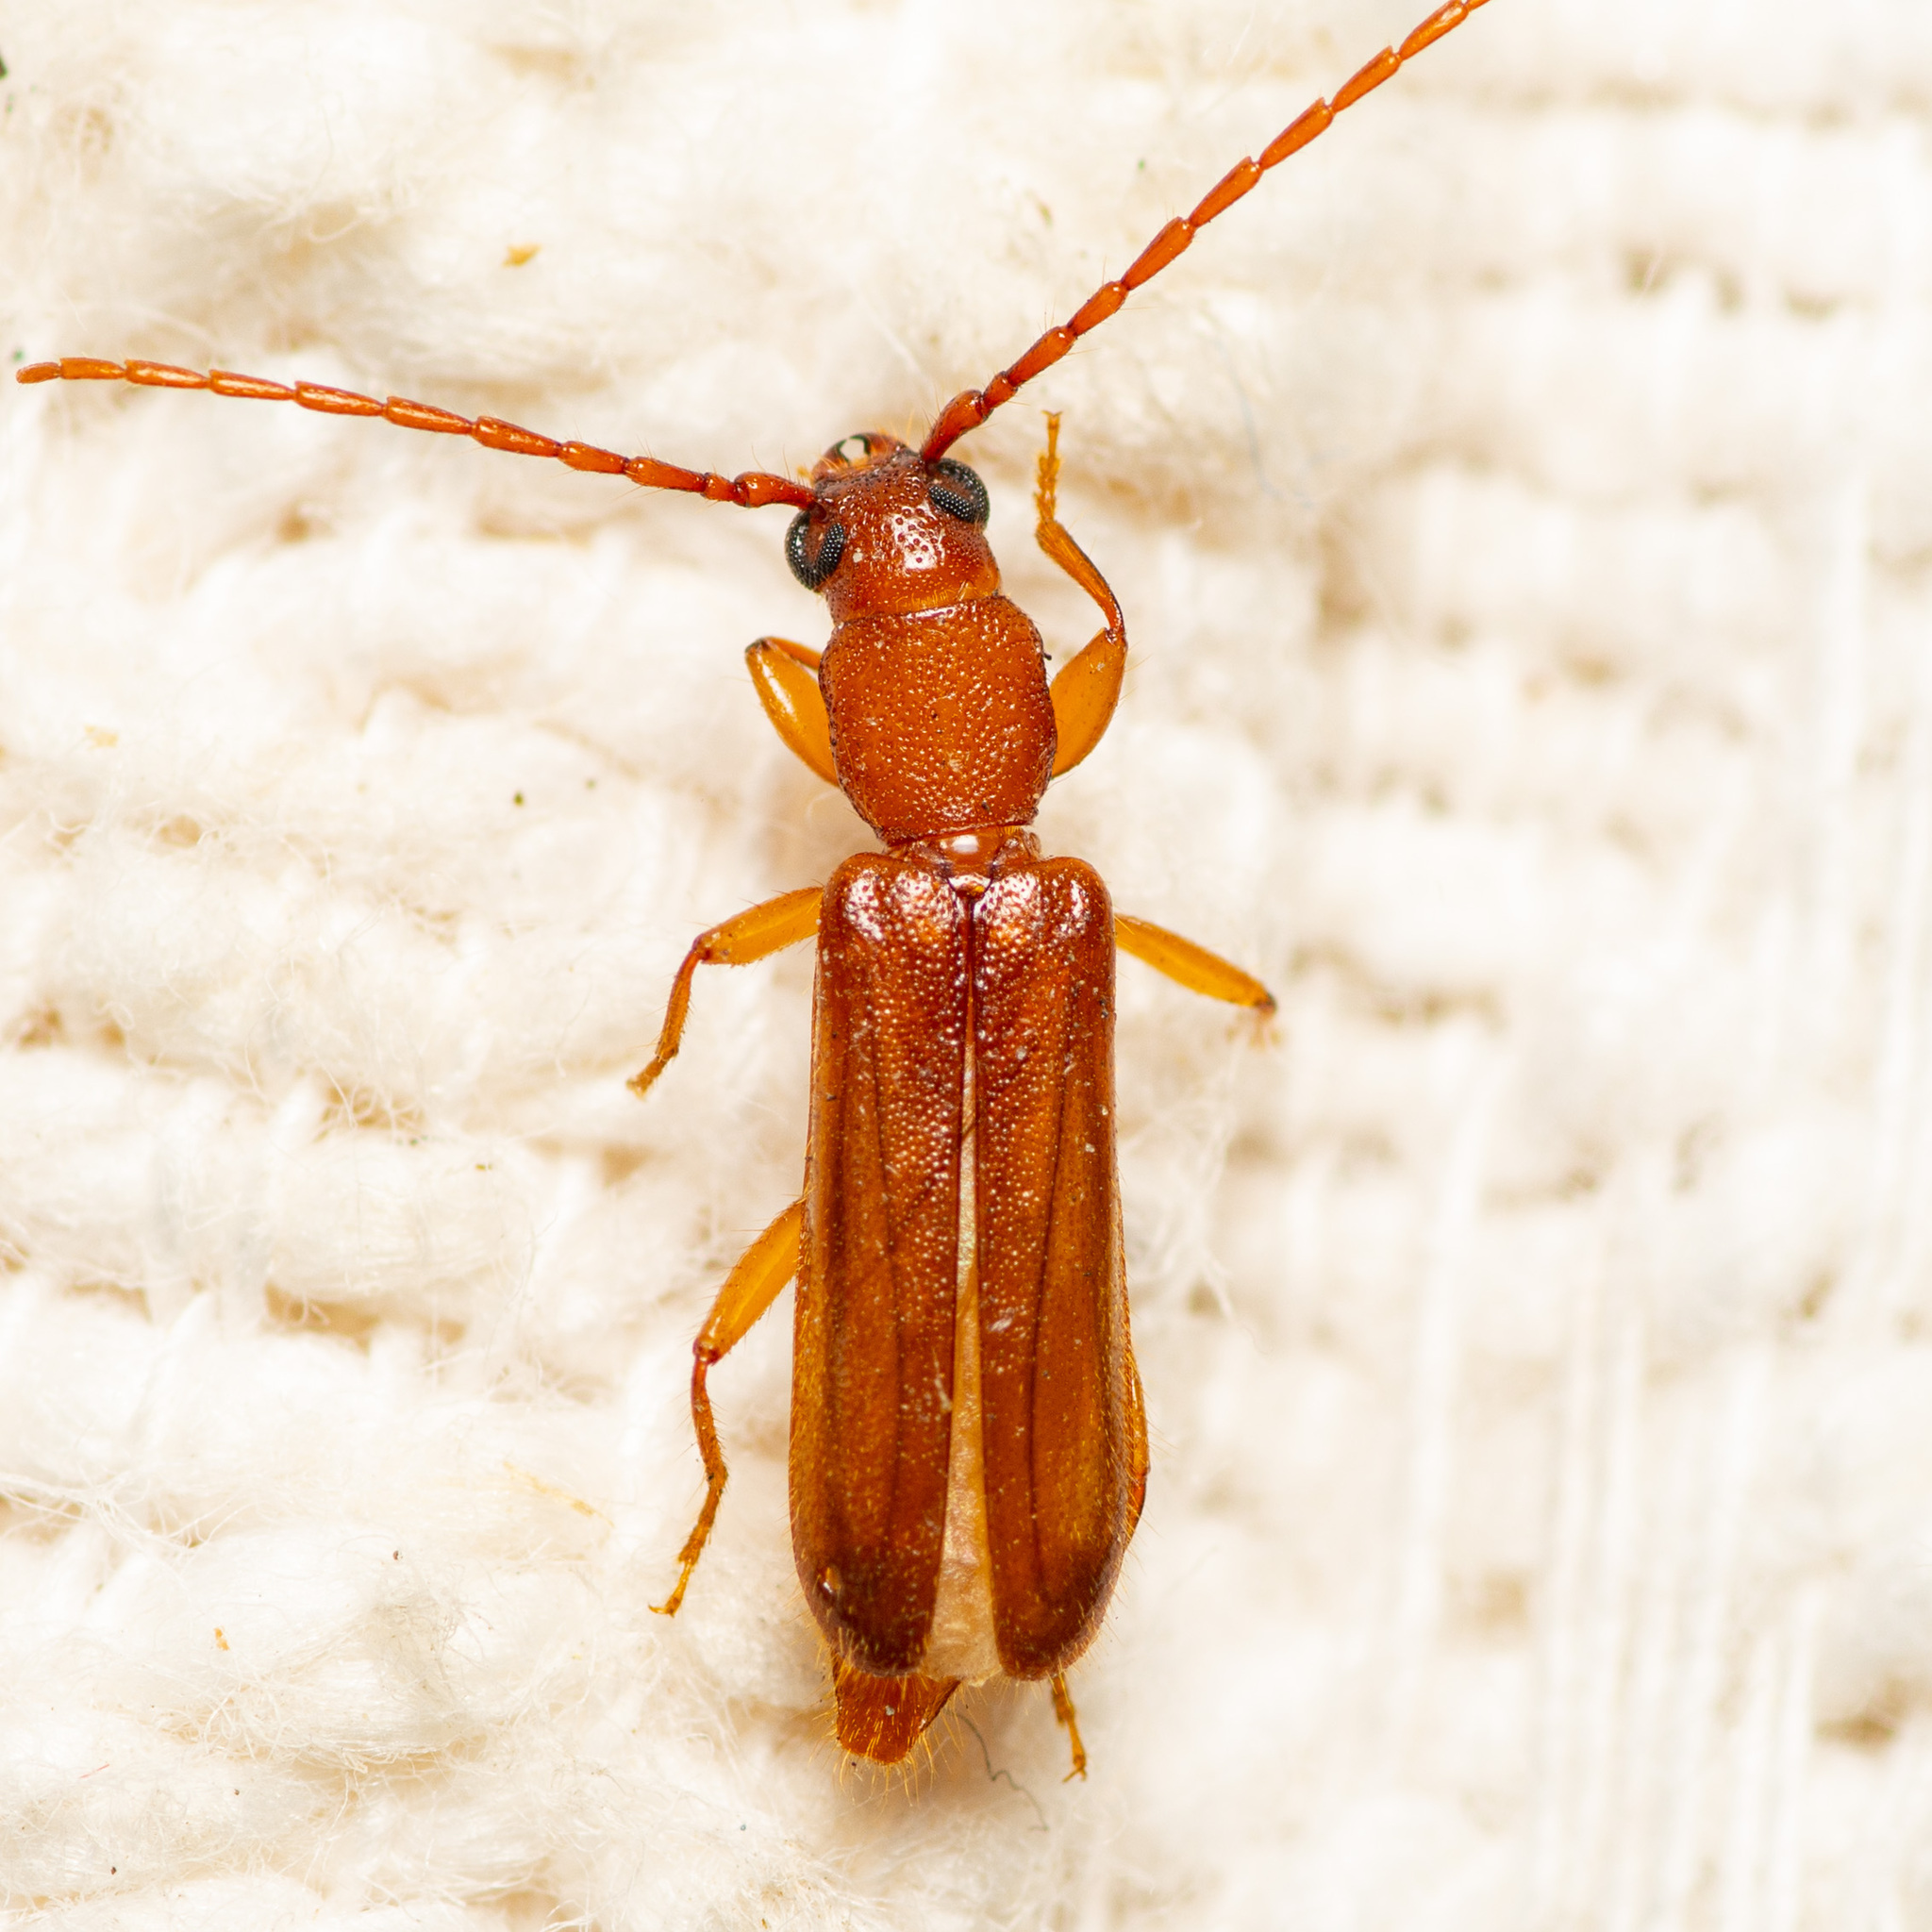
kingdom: Animalia
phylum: Arthropoda
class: Insecta
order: Coleoptera
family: Cerambycidae
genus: Smodicum
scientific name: Smodicum cucujiforme
